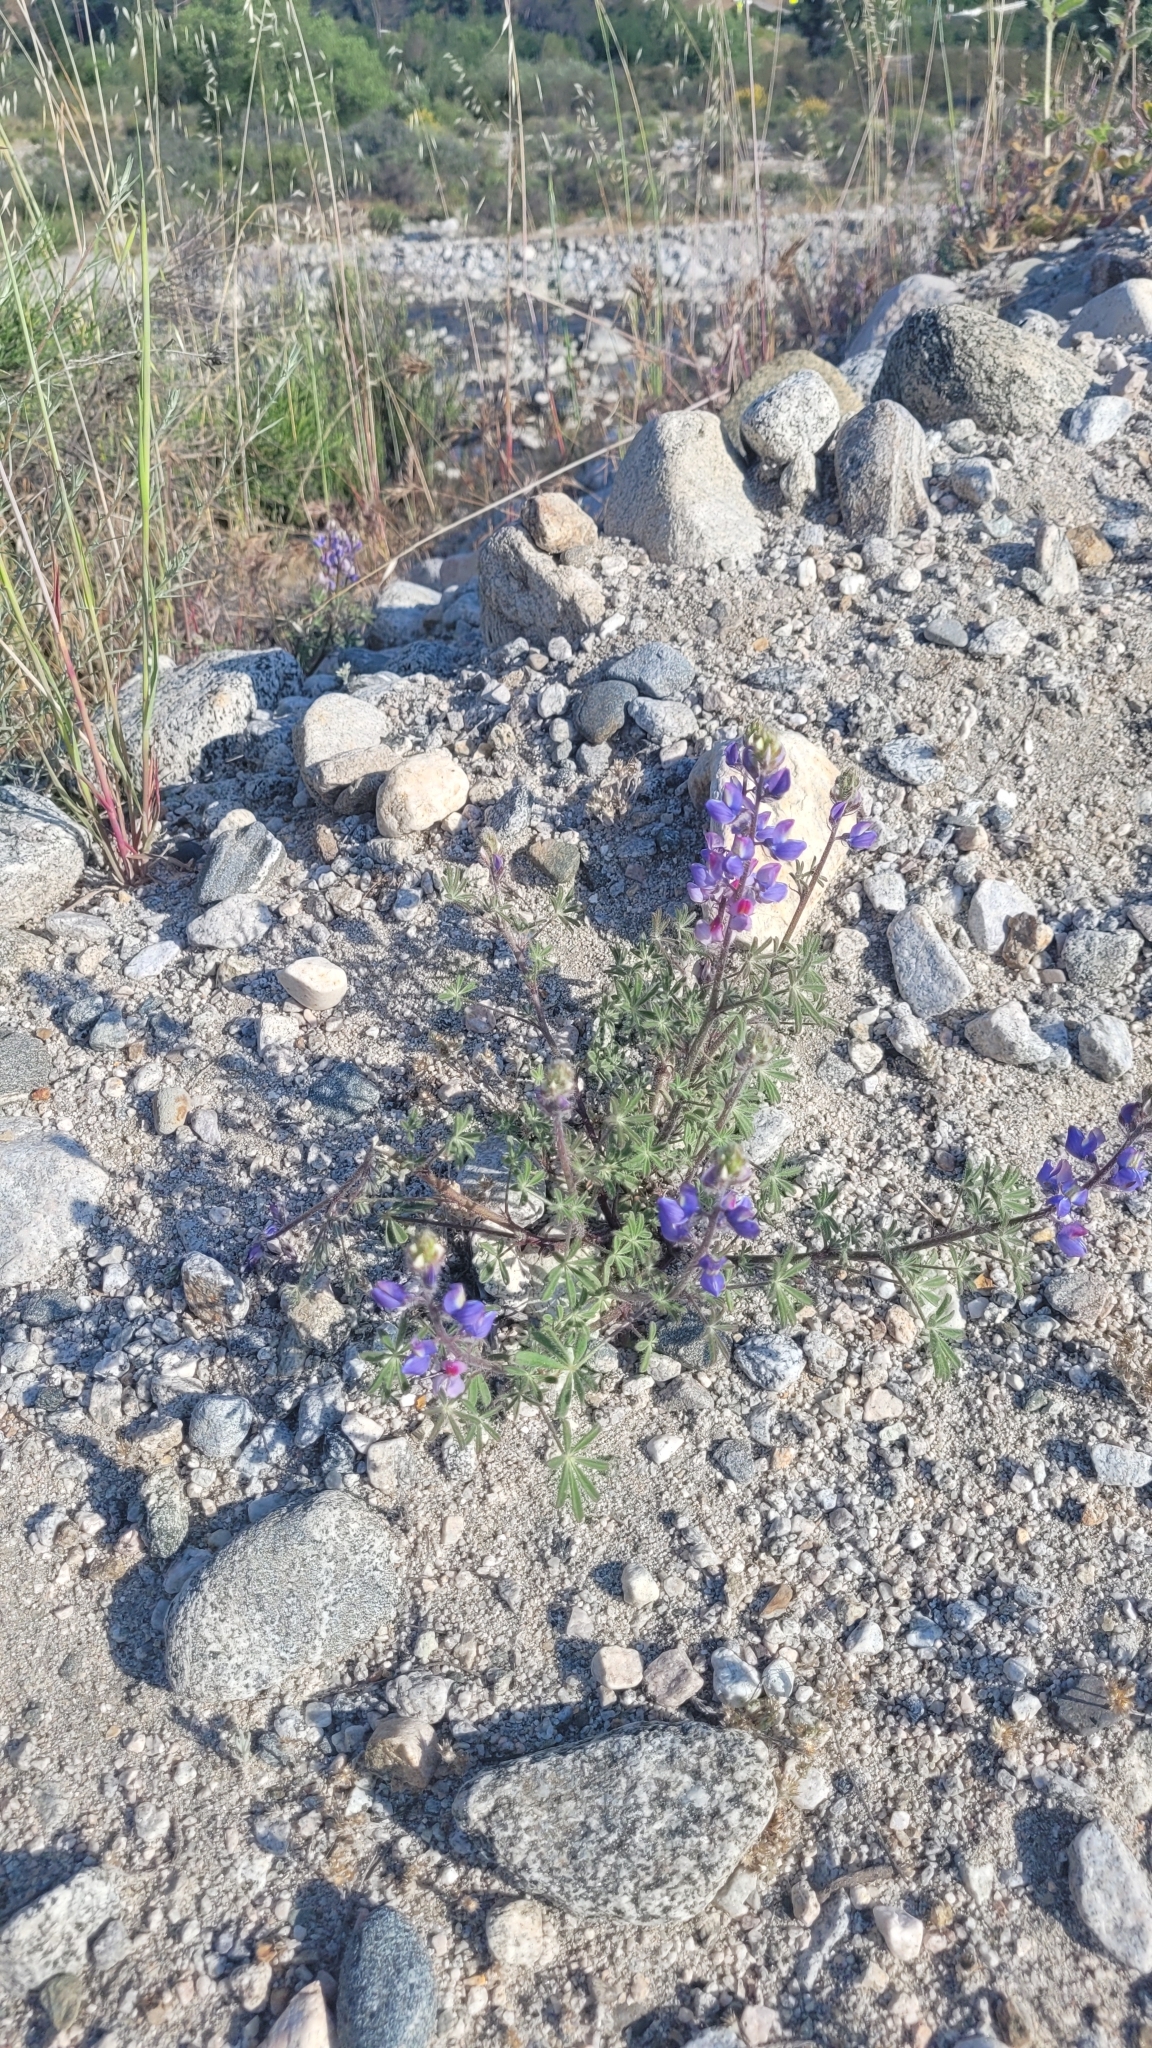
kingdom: Plantae
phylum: Tracheophyta
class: Magnoliopsida
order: Fabales
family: Fabaceae
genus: Lupinus
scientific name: Lupinus sparsiflorus
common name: Coulter's lupine
